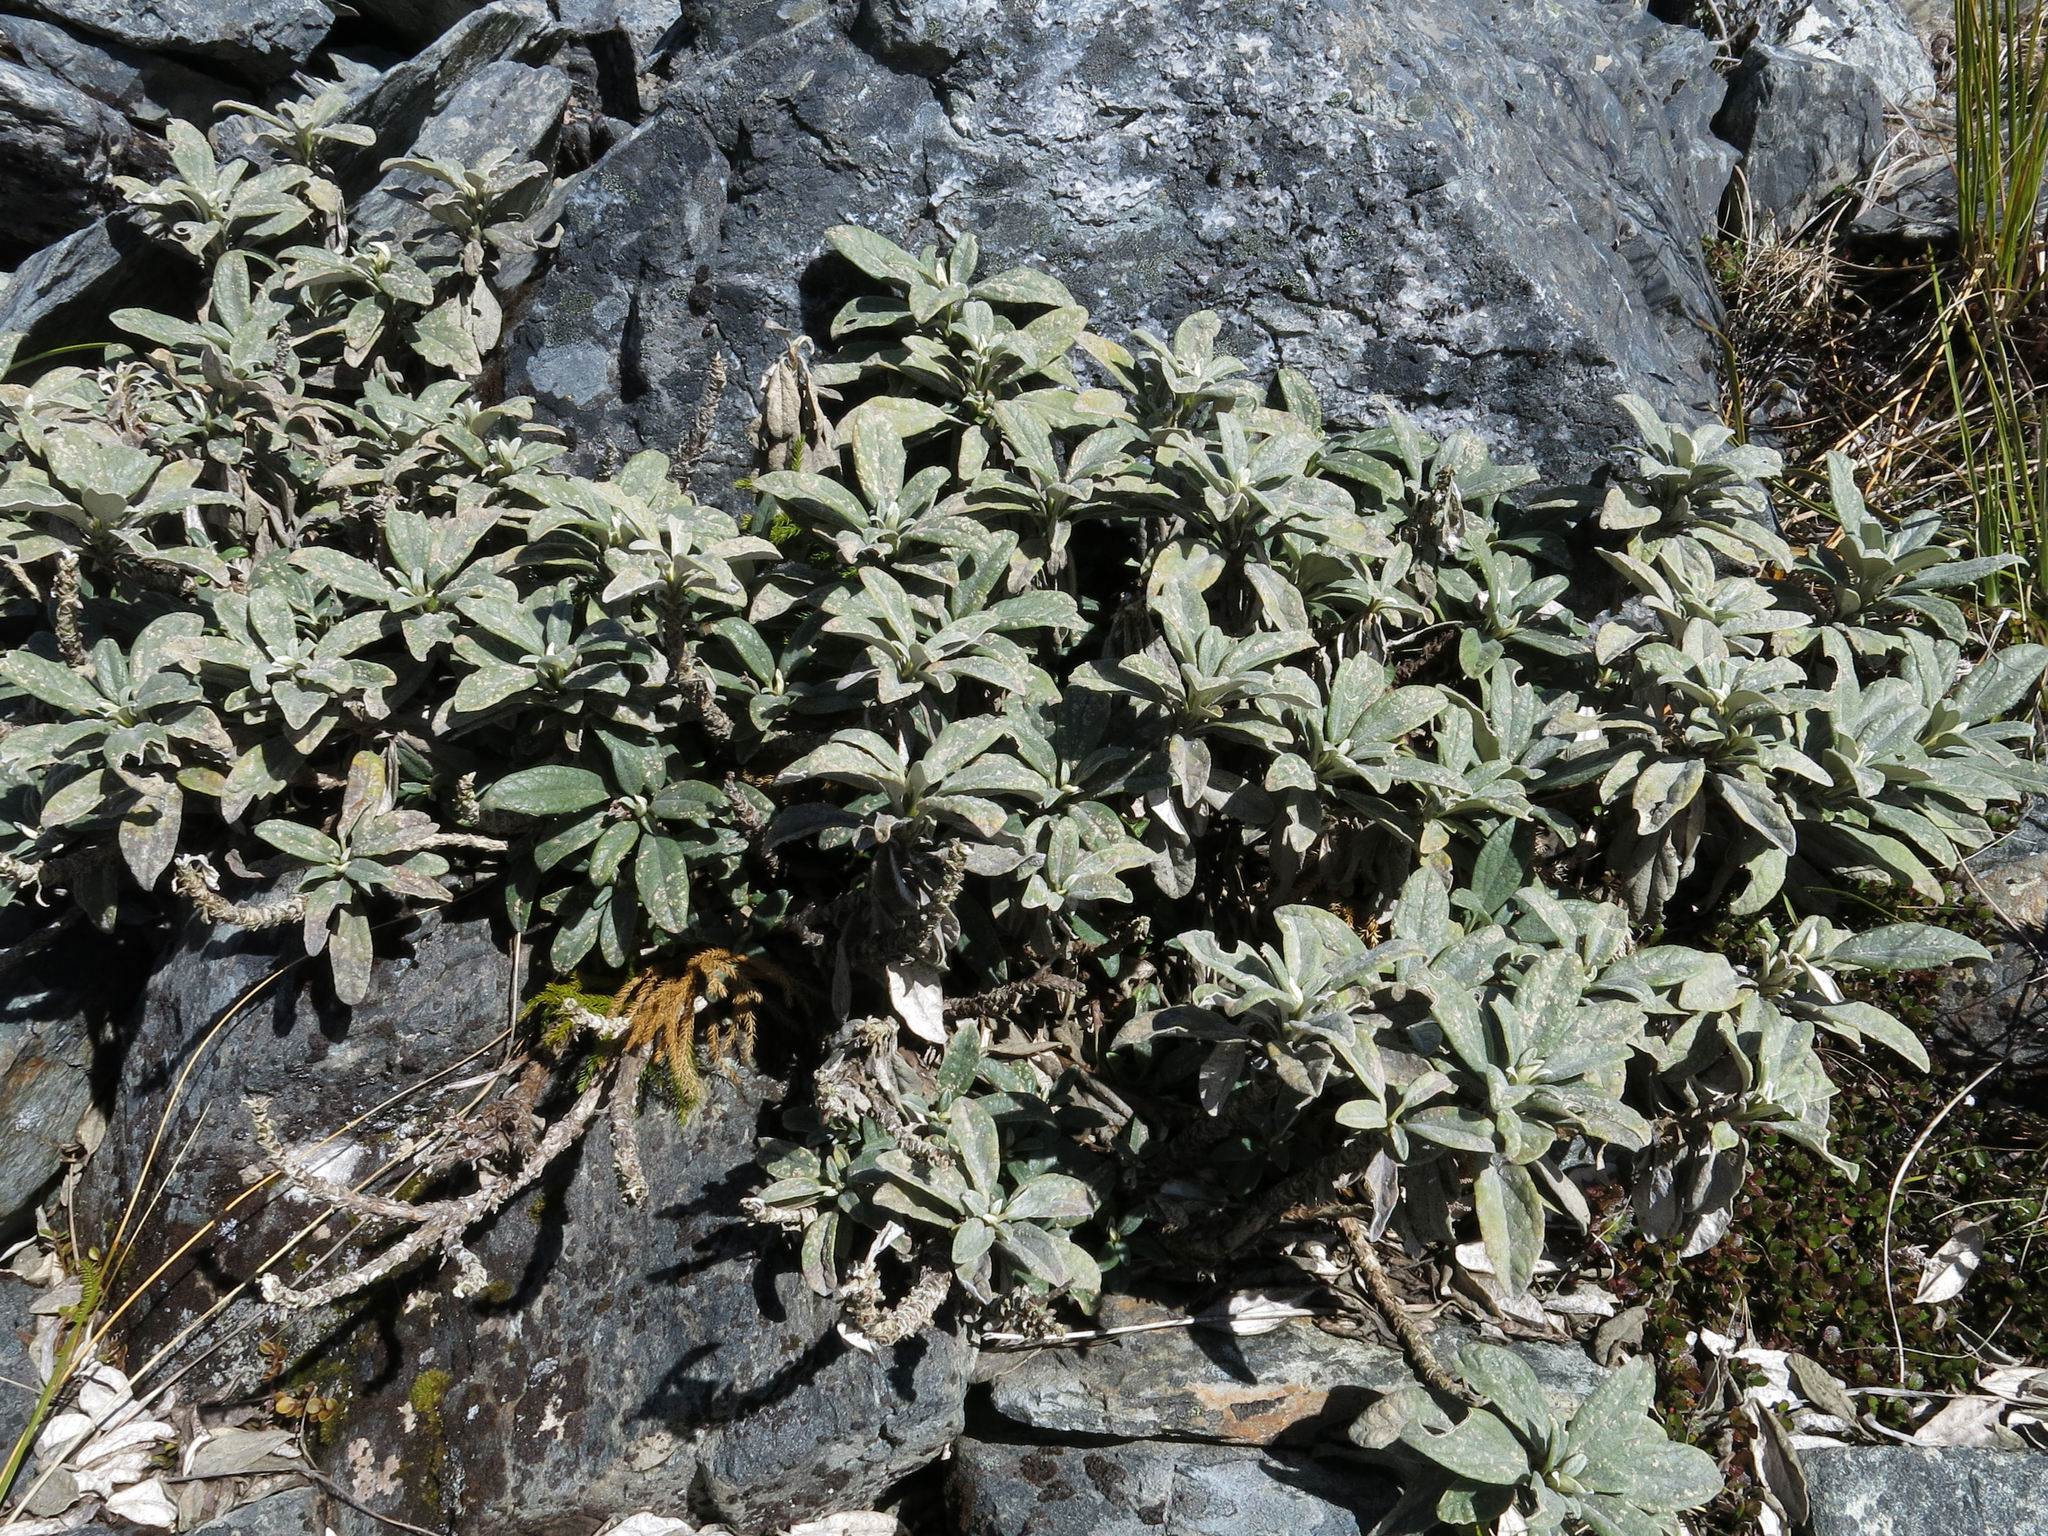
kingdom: Plantae
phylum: Tracheophyta
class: Magnoliopsida
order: Asterales
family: Asteraceae
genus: Brachyglottis
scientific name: Brachyglottis revoluta
